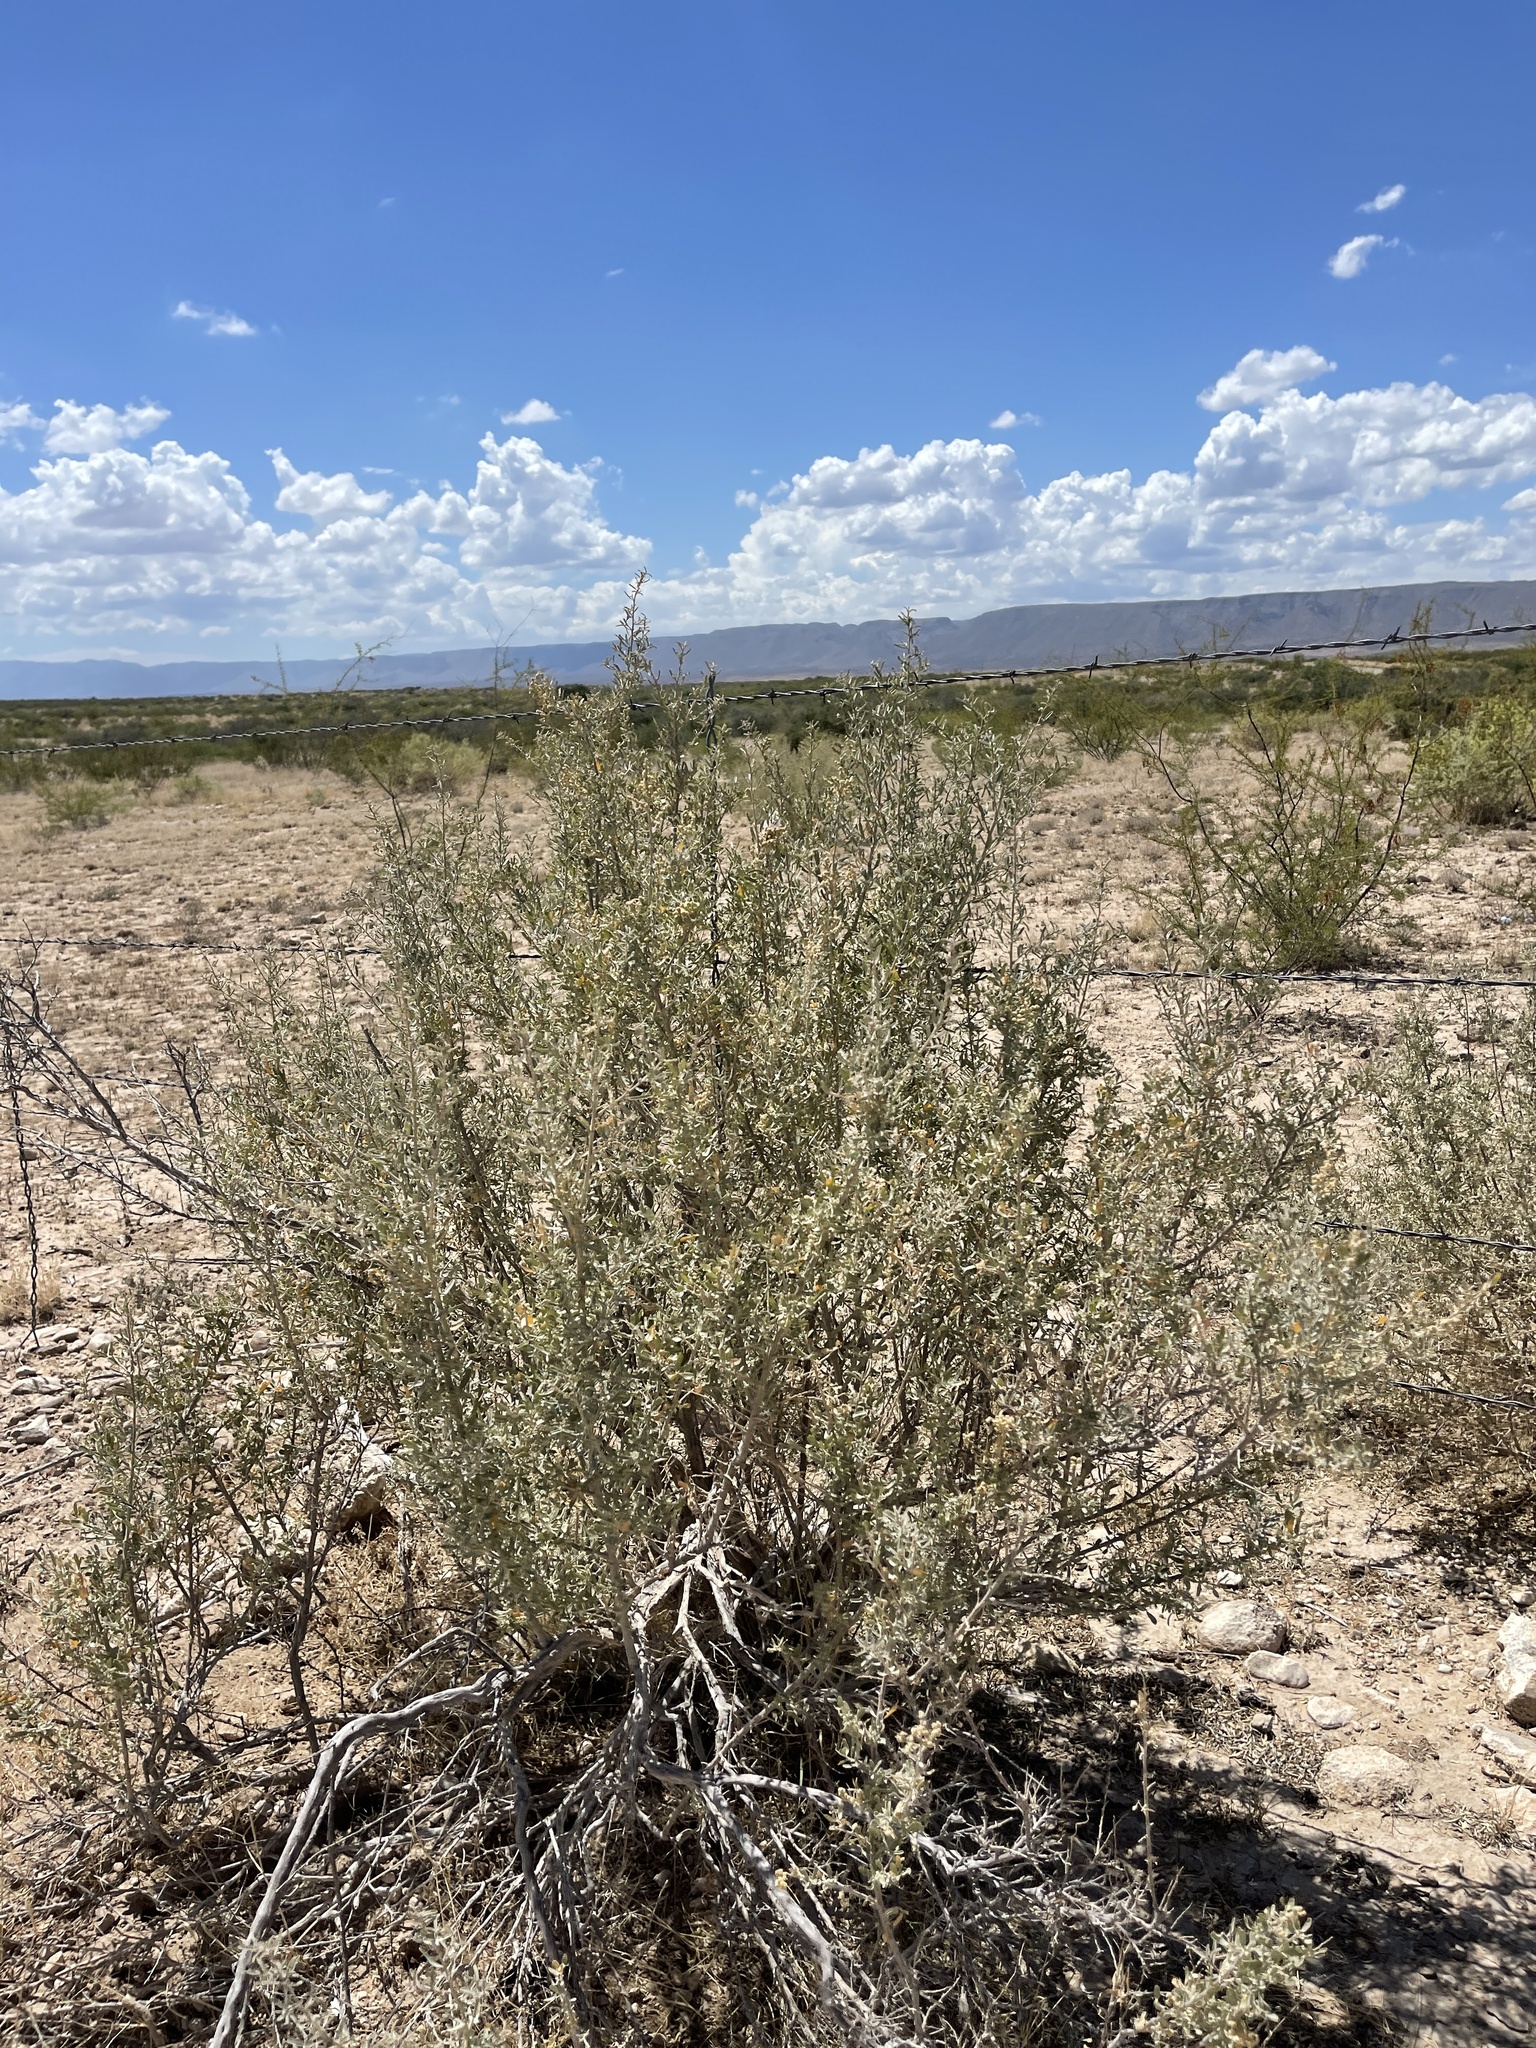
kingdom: Plantae
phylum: Tracheophyta
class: Magnoliopsida
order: Caryophyllales
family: Amaranthaceae
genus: Atriplex
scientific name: Atriplex canescens
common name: Four-wing saltbush
